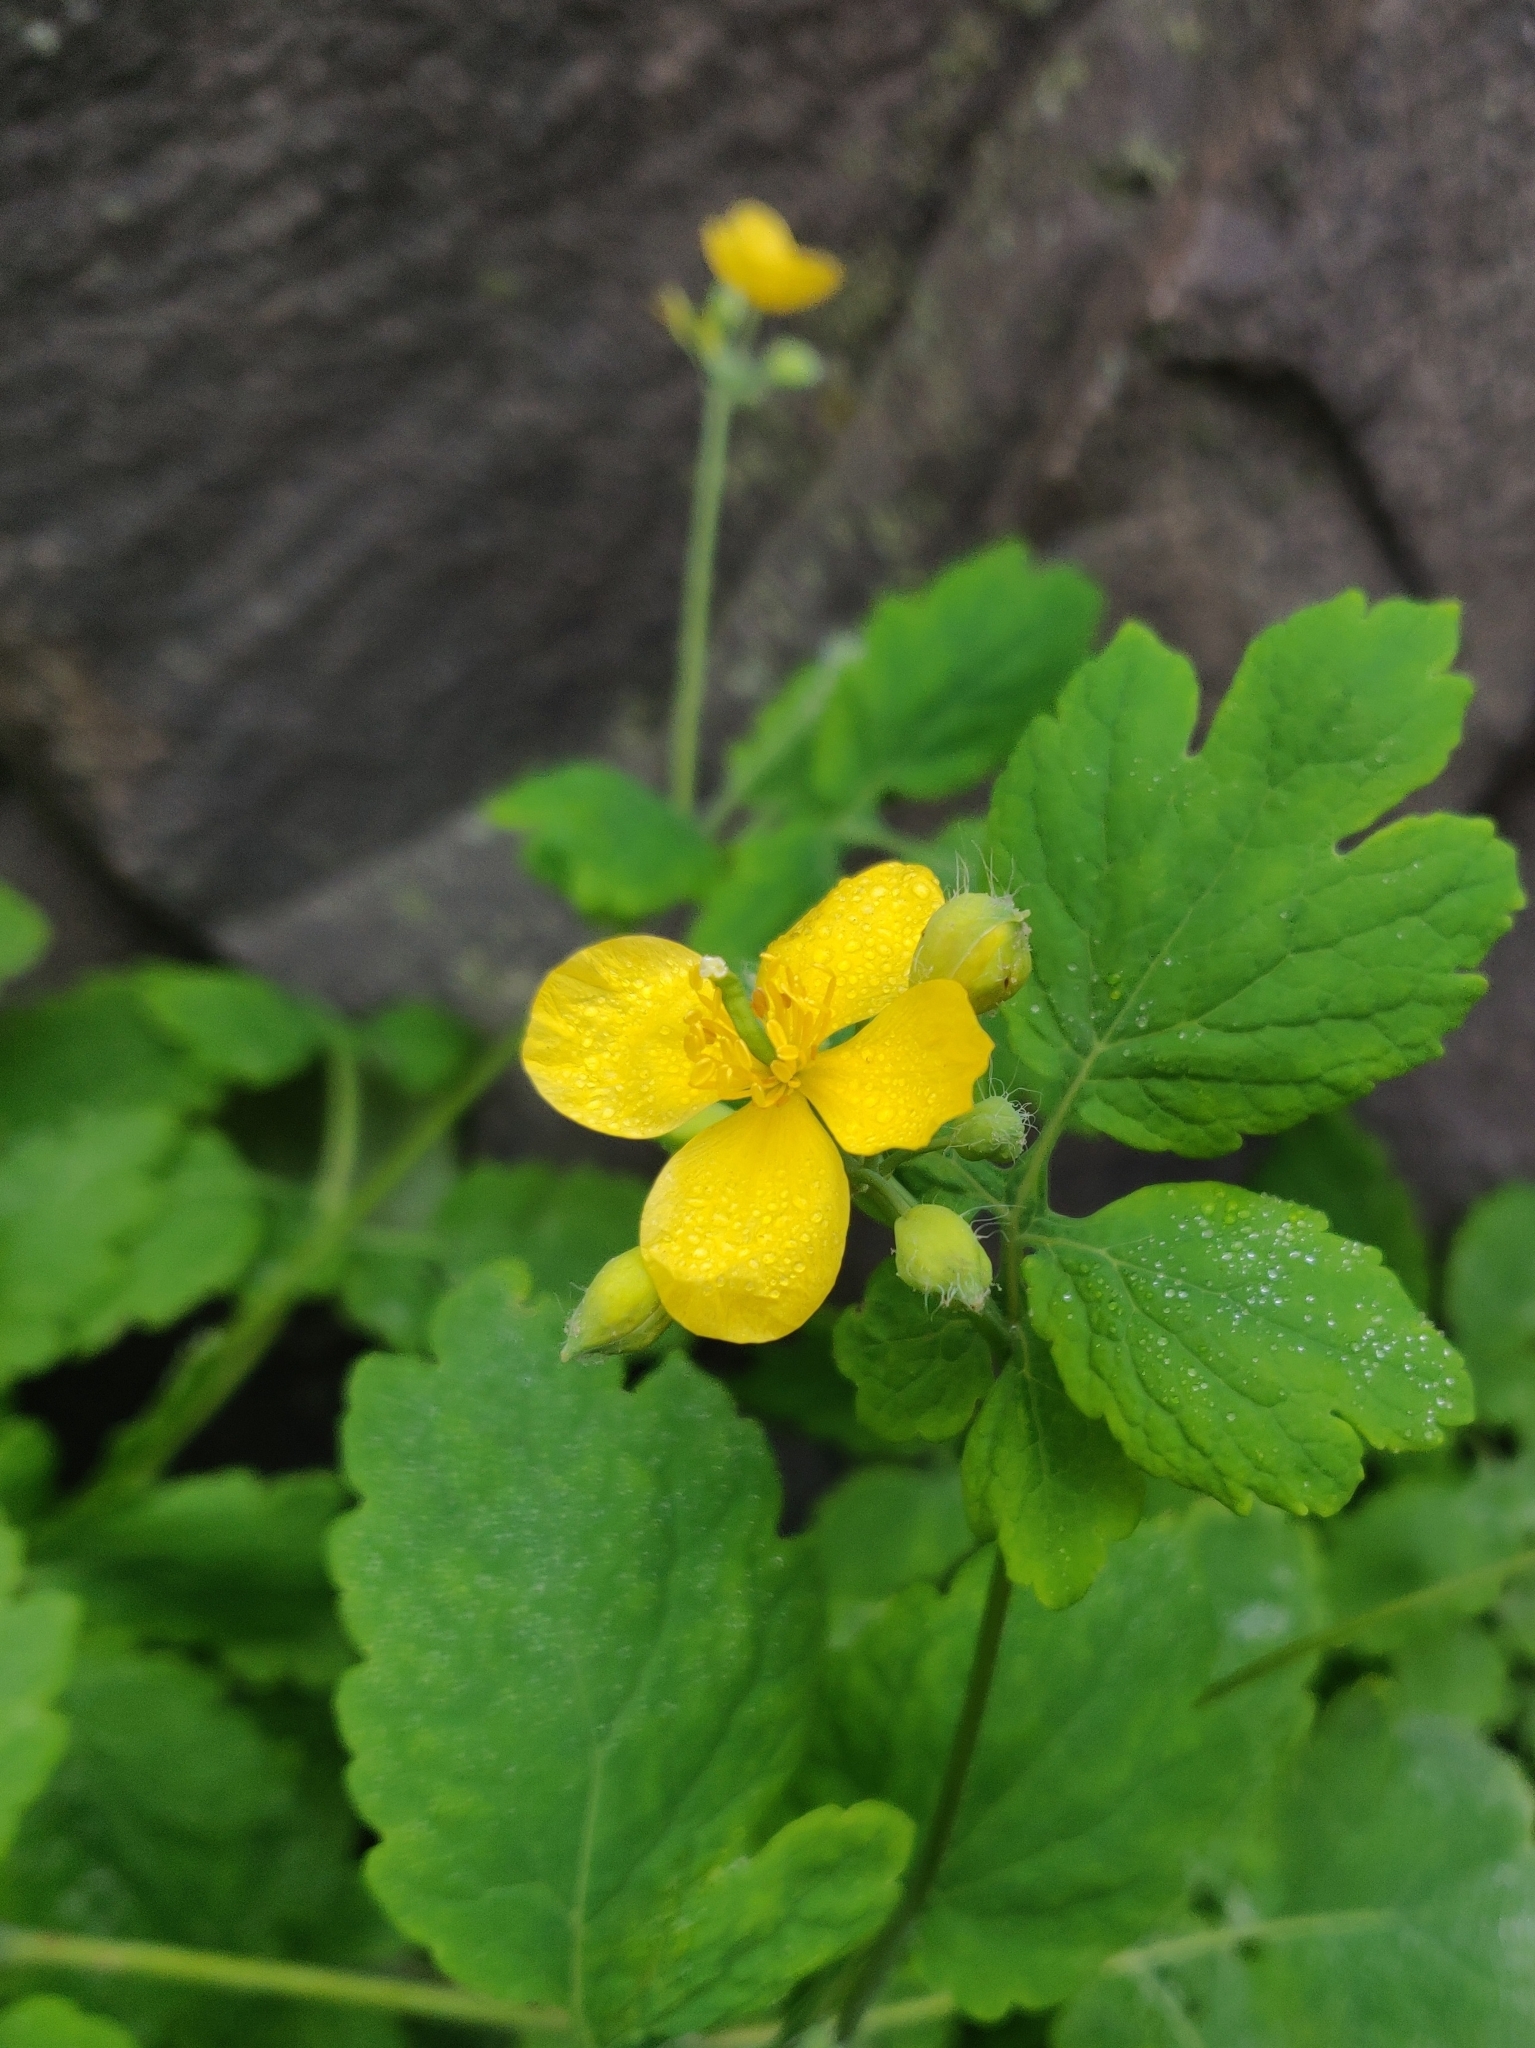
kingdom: Plantae
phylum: Tracheophyta
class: Magnoliopsida
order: Ranunculales
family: Papaveraceae
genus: Chelidonium
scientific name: Chelidonium majus
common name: Greater celandine
